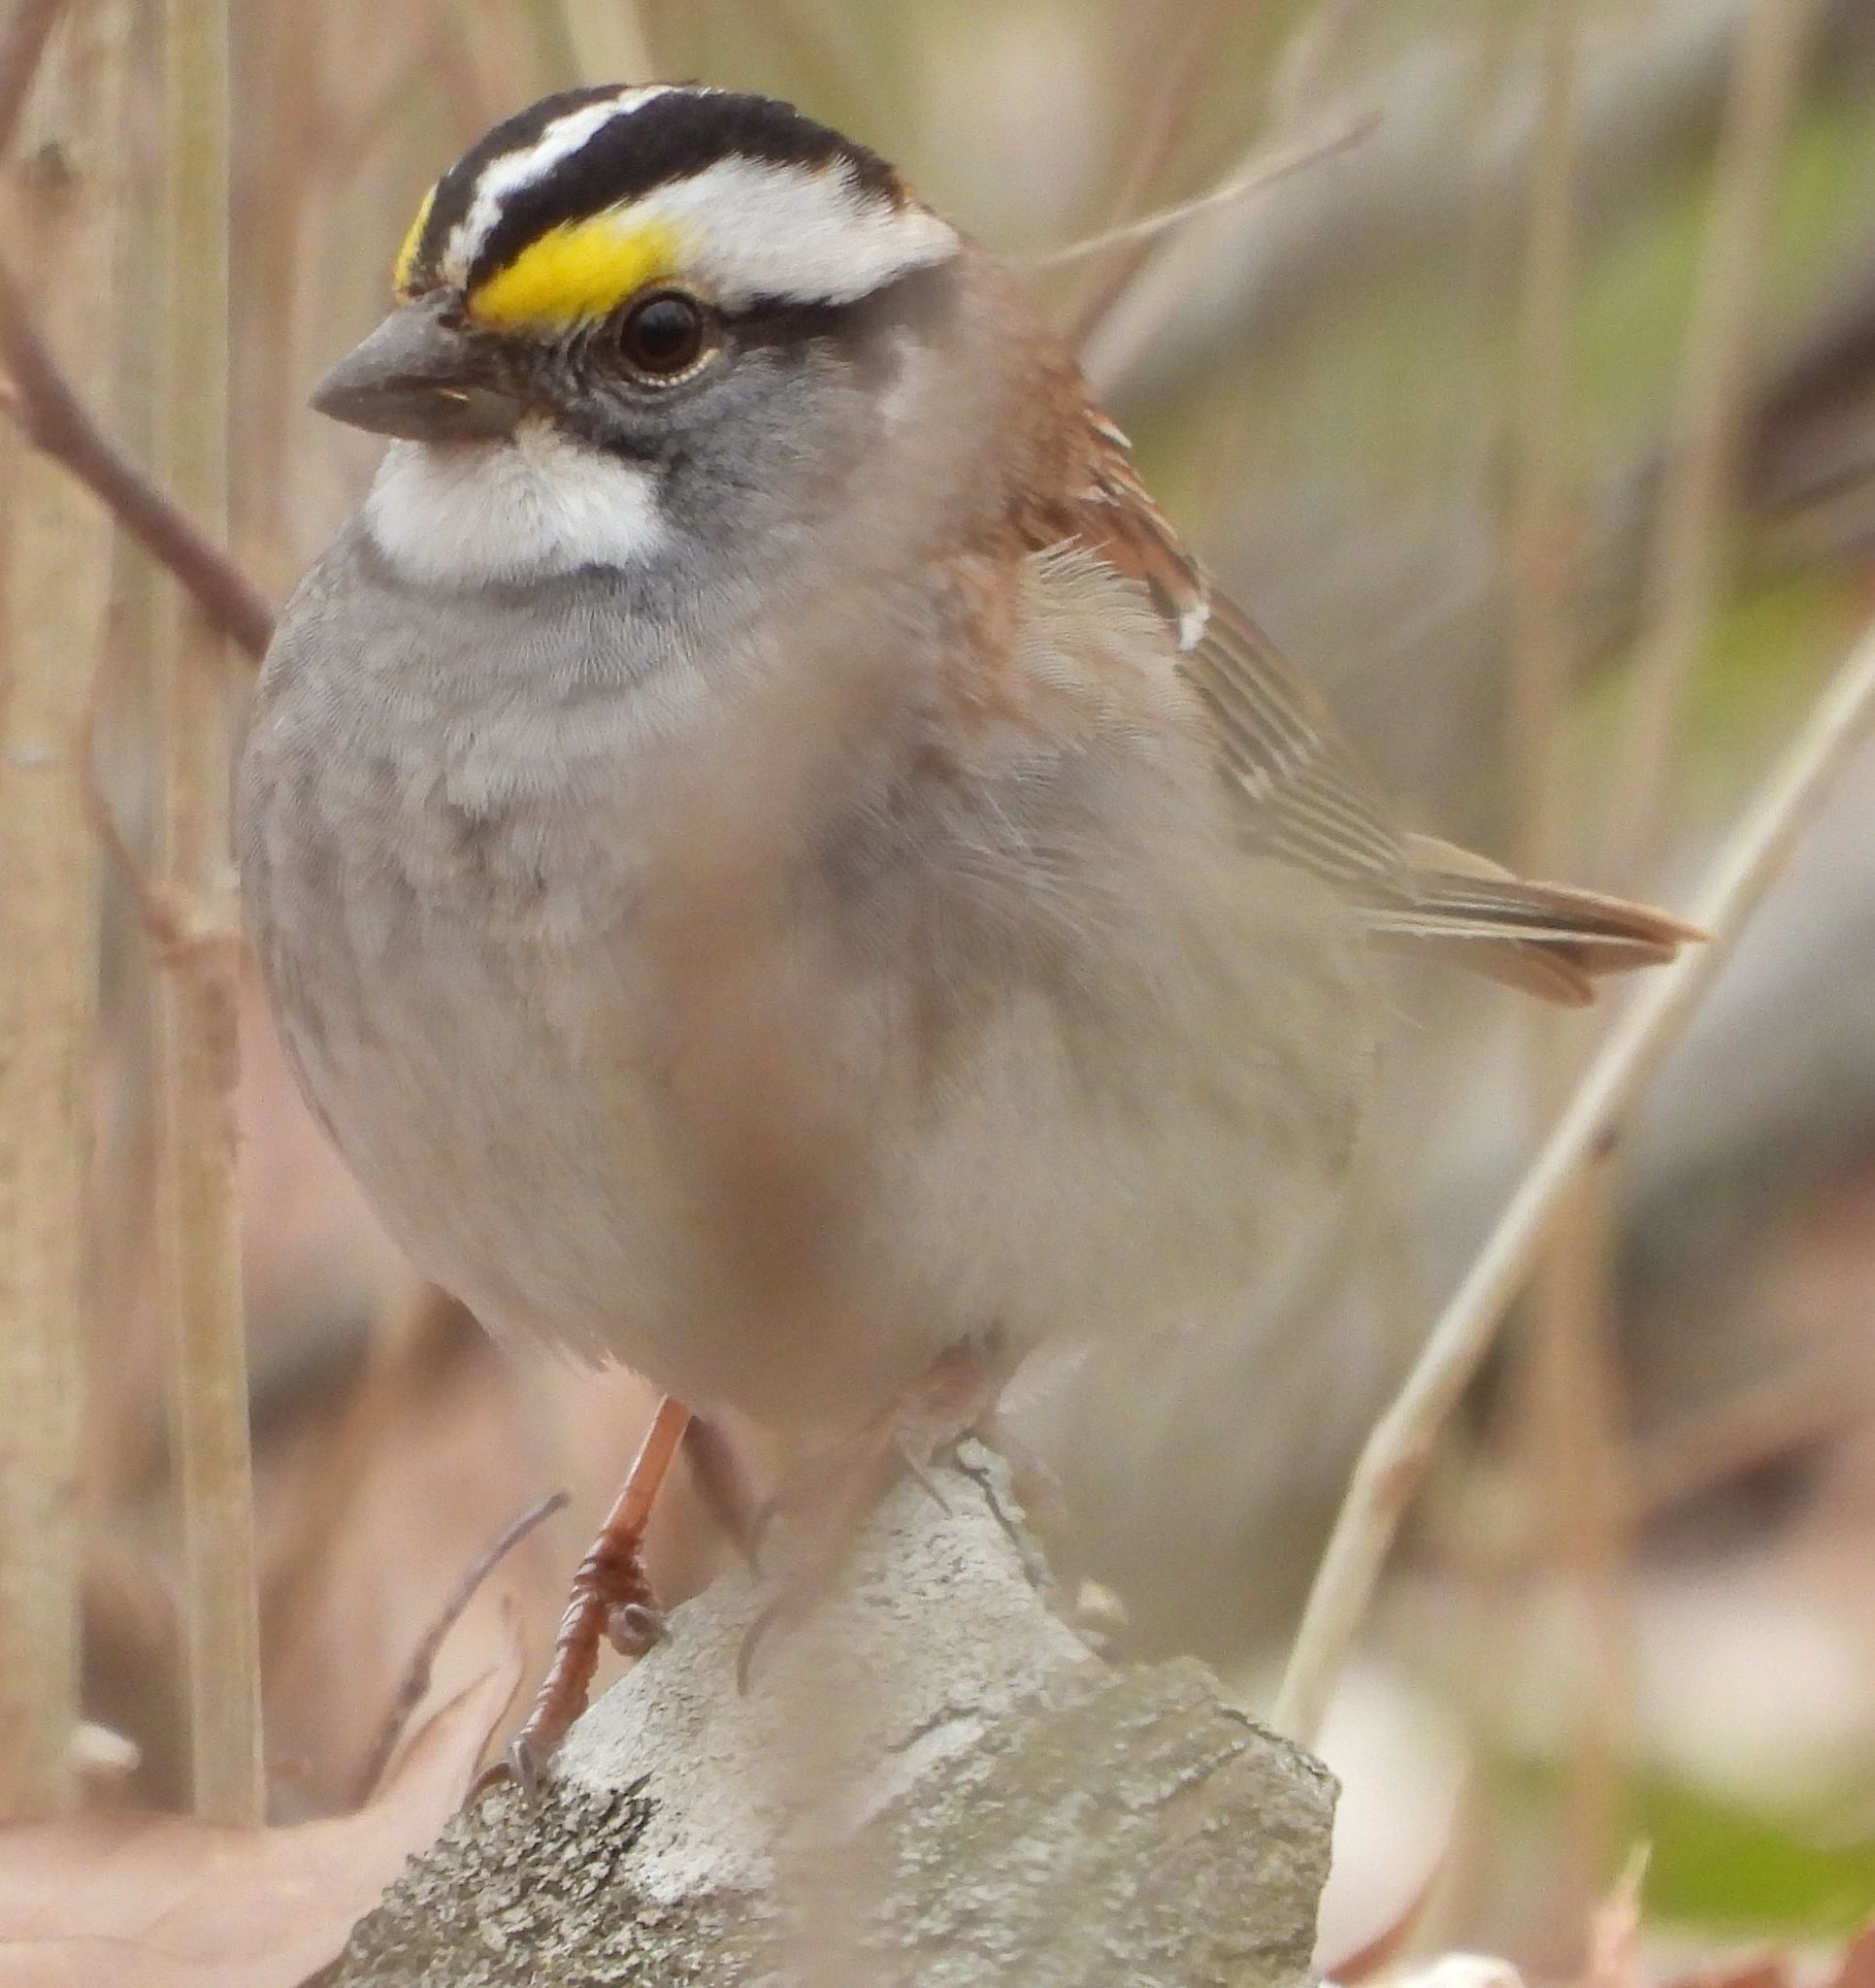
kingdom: Animalia
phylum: Chordata
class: Aves
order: Passeriformes
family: Passerellidae
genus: Zonotrichia
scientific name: Zonotrichia albicollis
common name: White-throated sparrow
